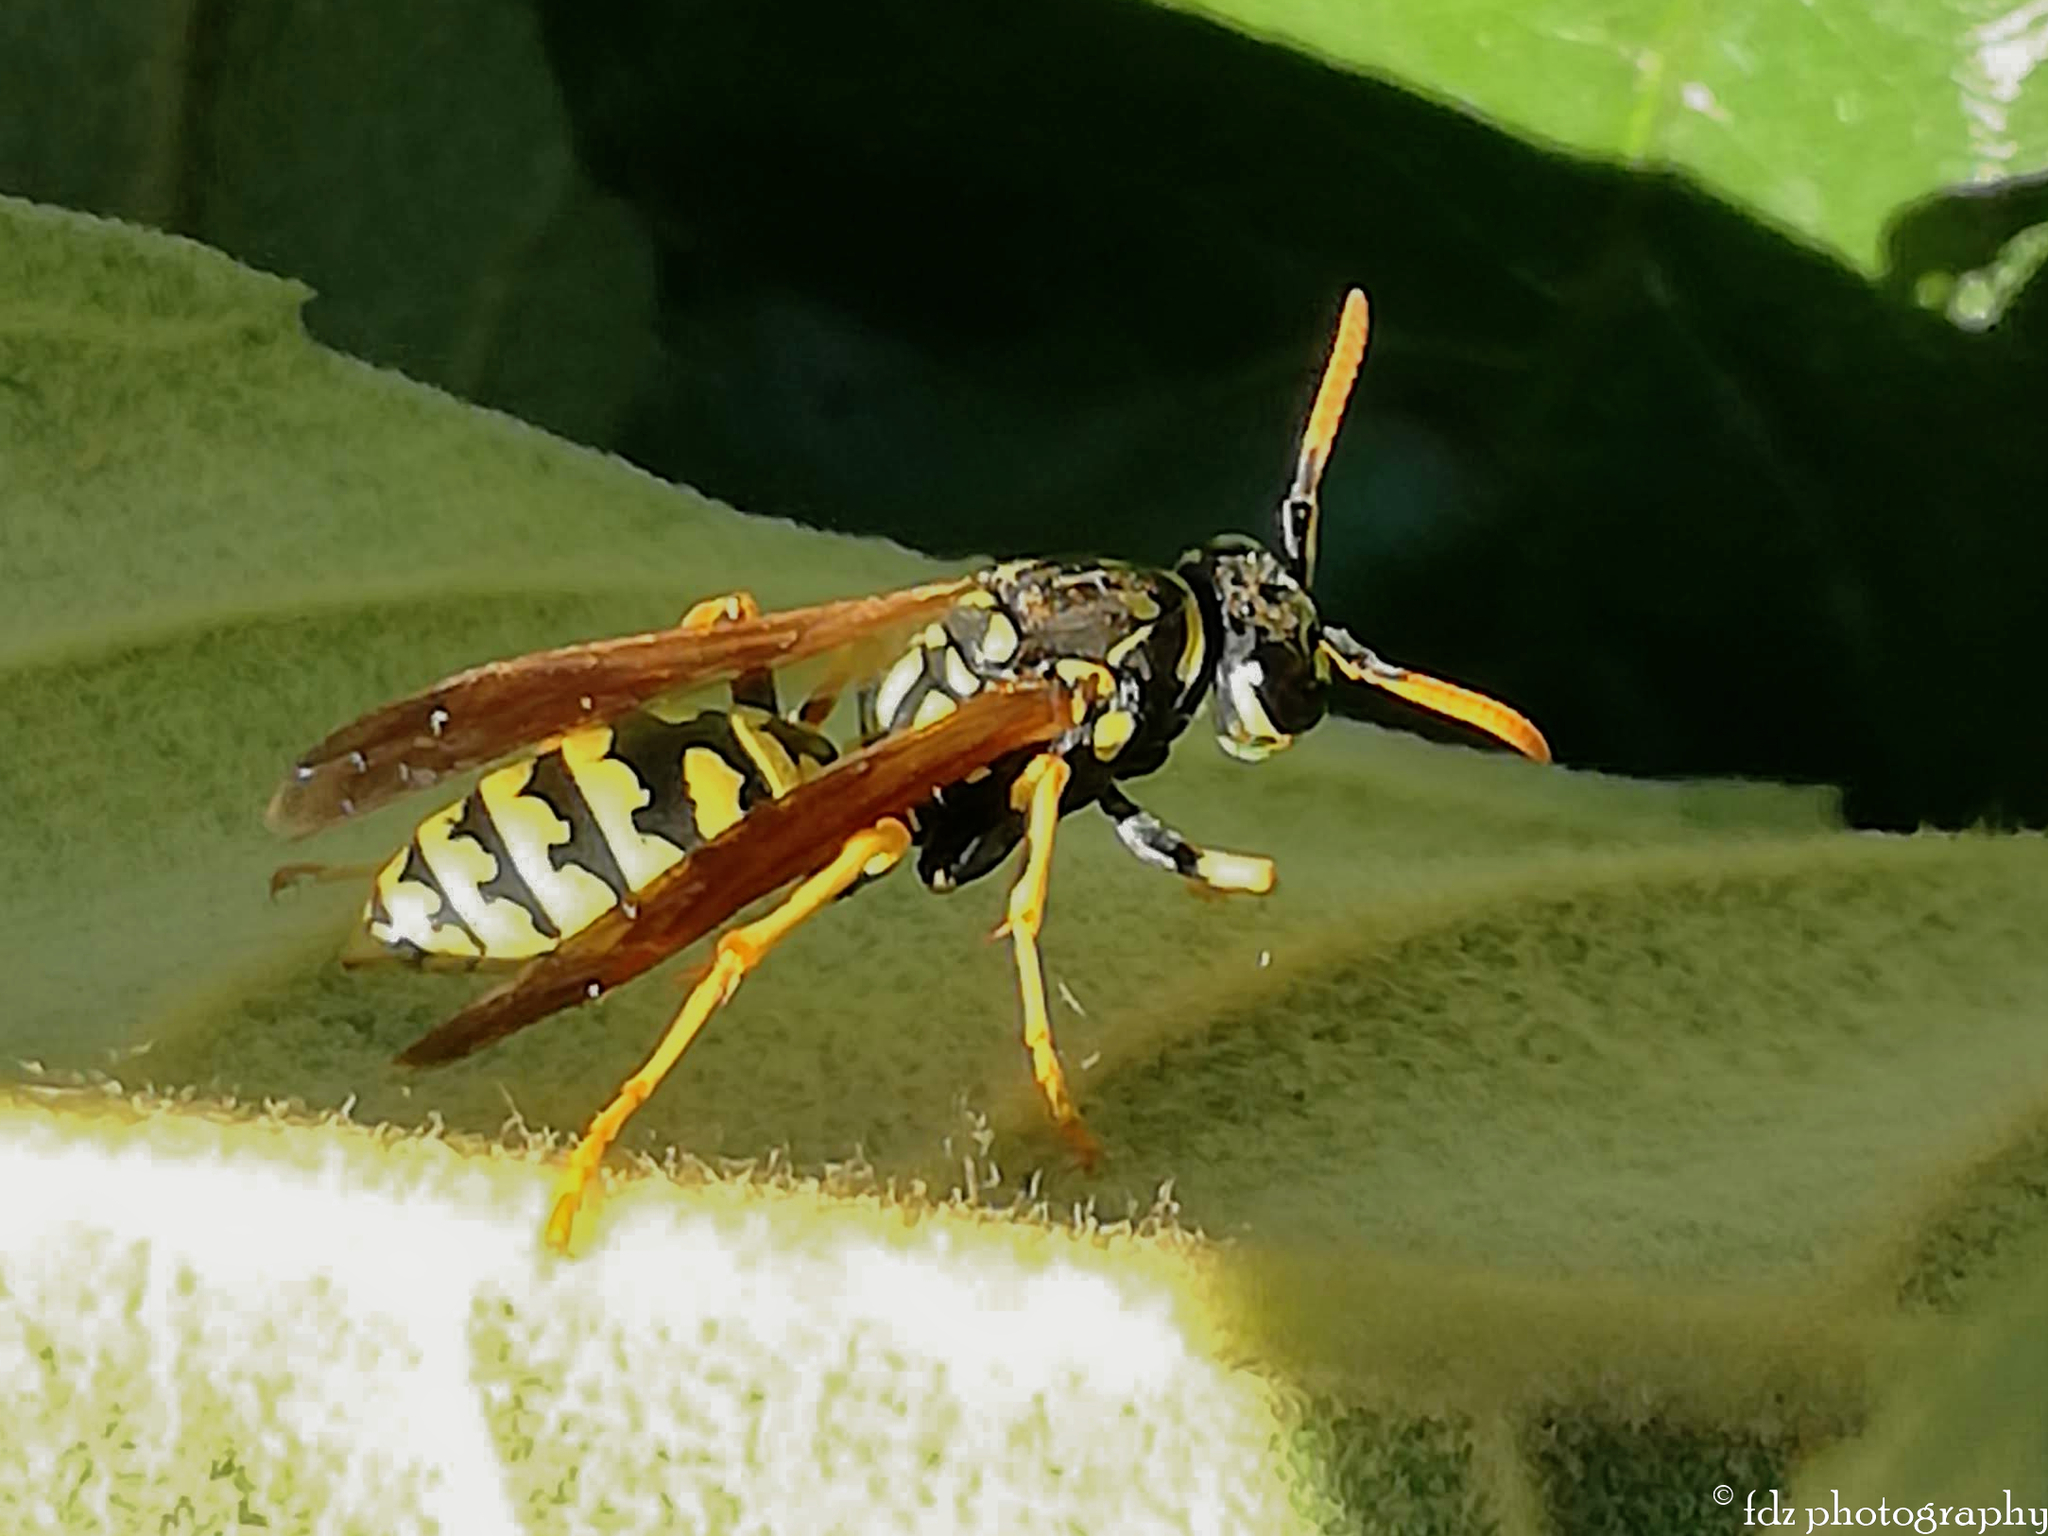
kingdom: Animalia
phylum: Arthropoda
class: Insecta
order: Hymenoptera
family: Eumenidae
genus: Polistes
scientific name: Polistes dominula
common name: Paper wasp
